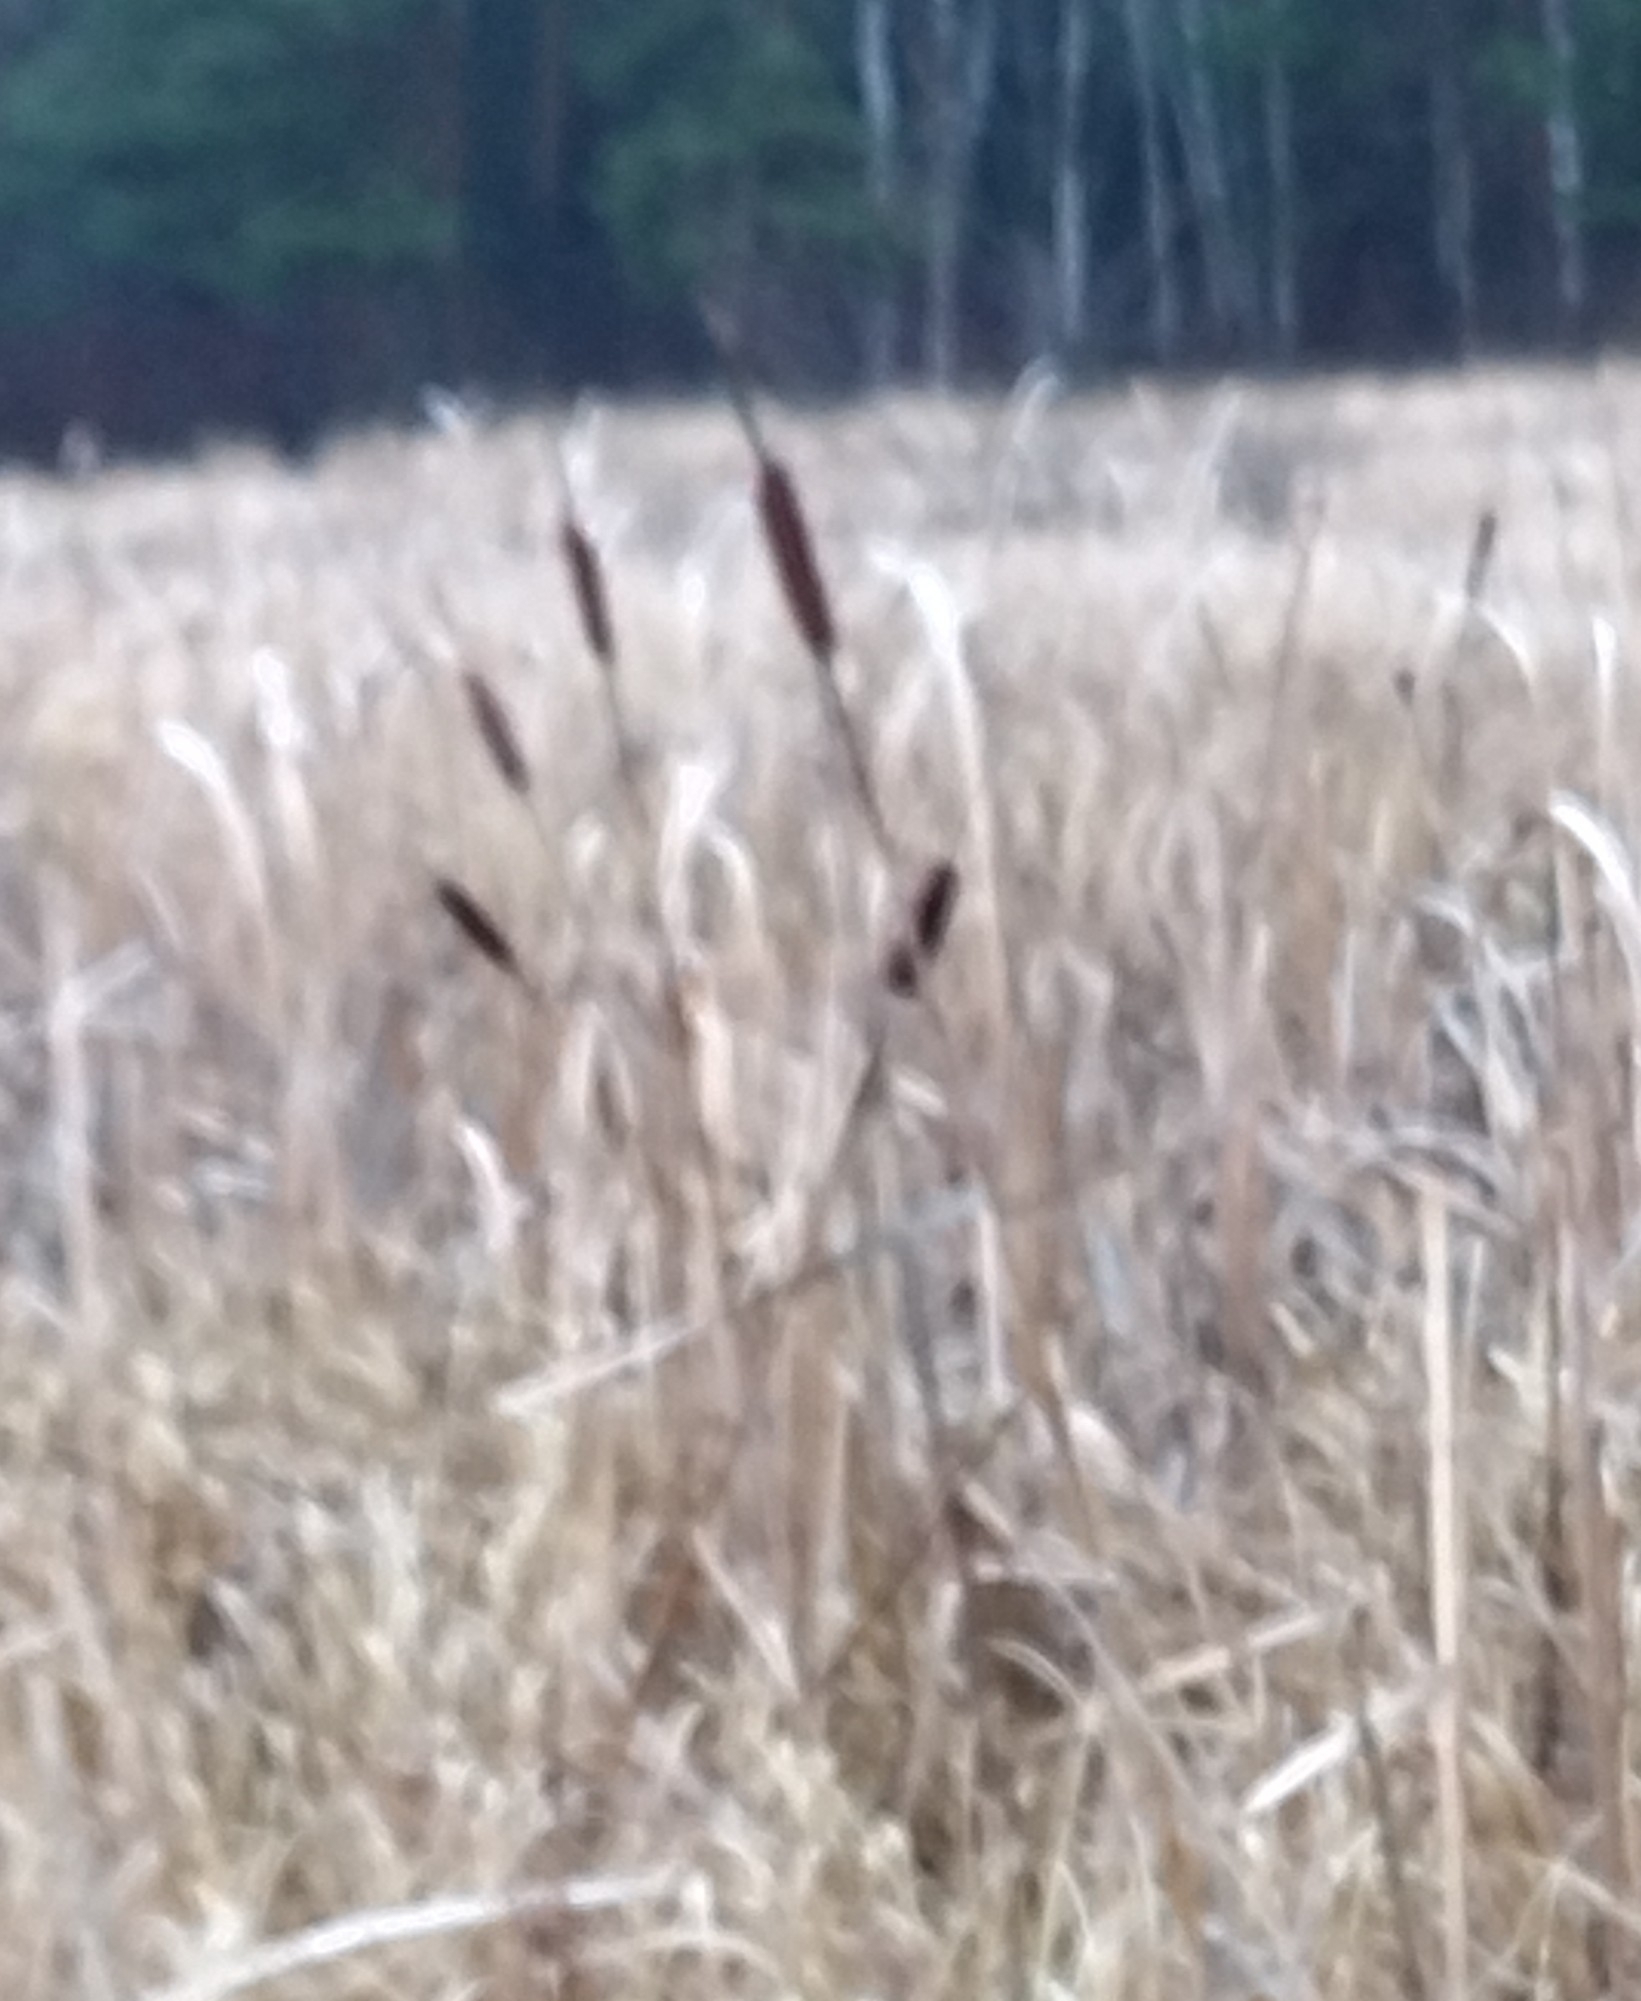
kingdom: Plantae
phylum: Tracheophyta
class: Liliopsida
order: Poales
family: Typhaceae
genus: Typha
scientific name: Typha latifolia
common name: Broadleaf cattail
